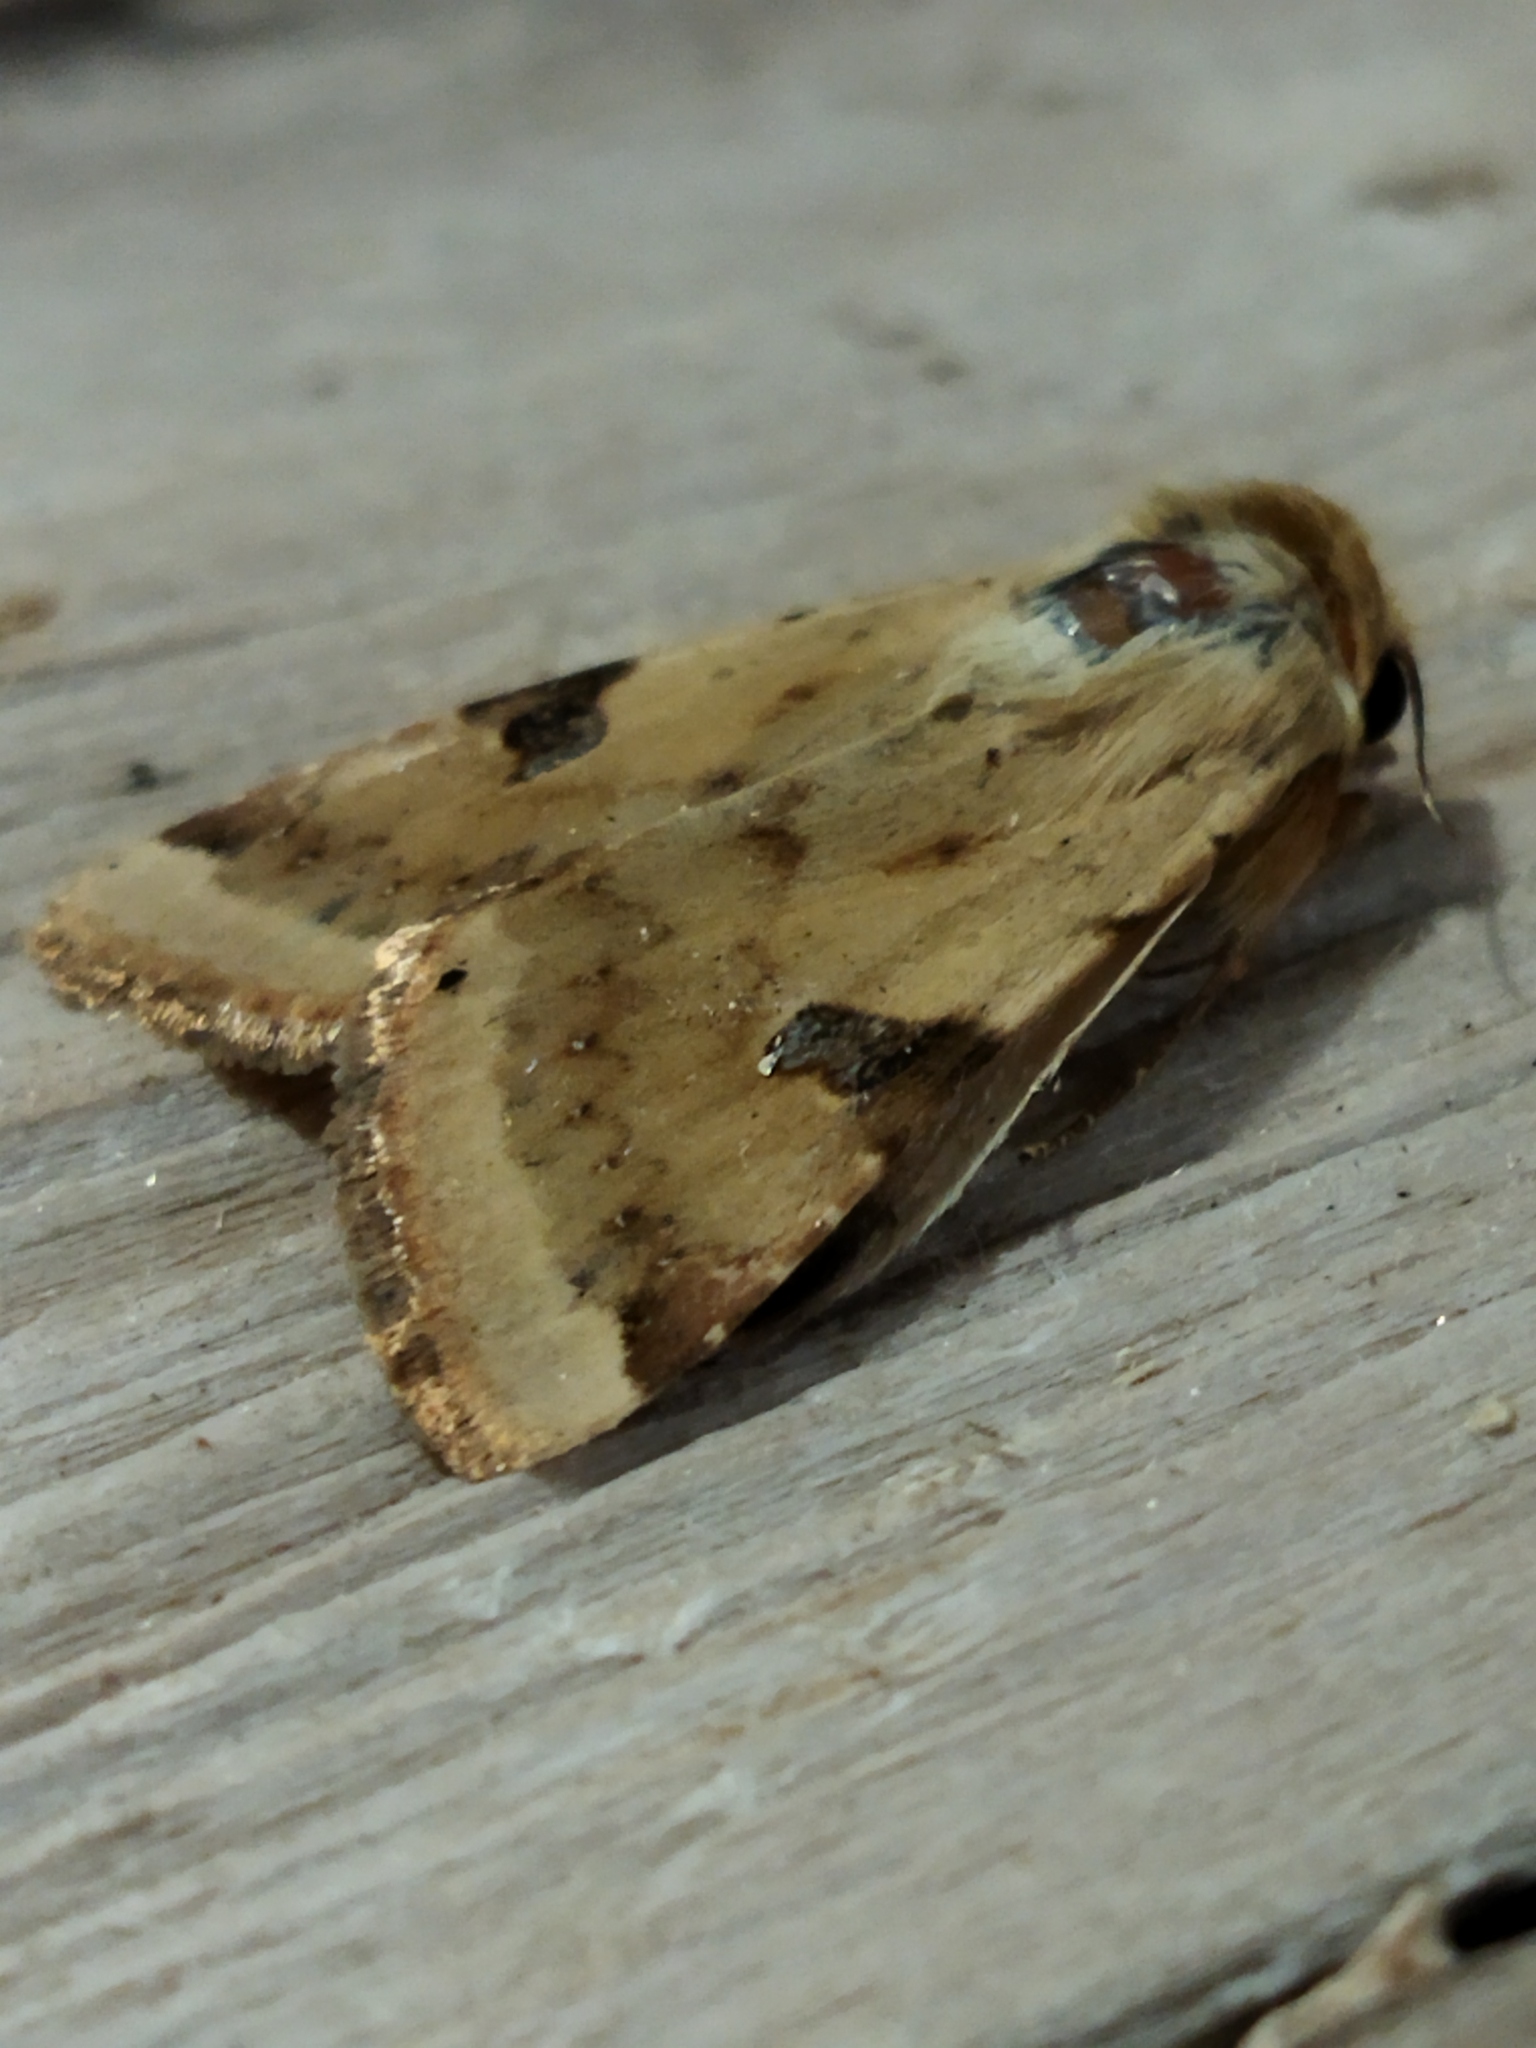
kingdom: Animalia
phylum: Arthropoda
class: Insecta
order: Lepidoptera
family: Noctuidae
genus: Heliothis
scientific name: Heliothis peltigera
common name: Bordered straw
